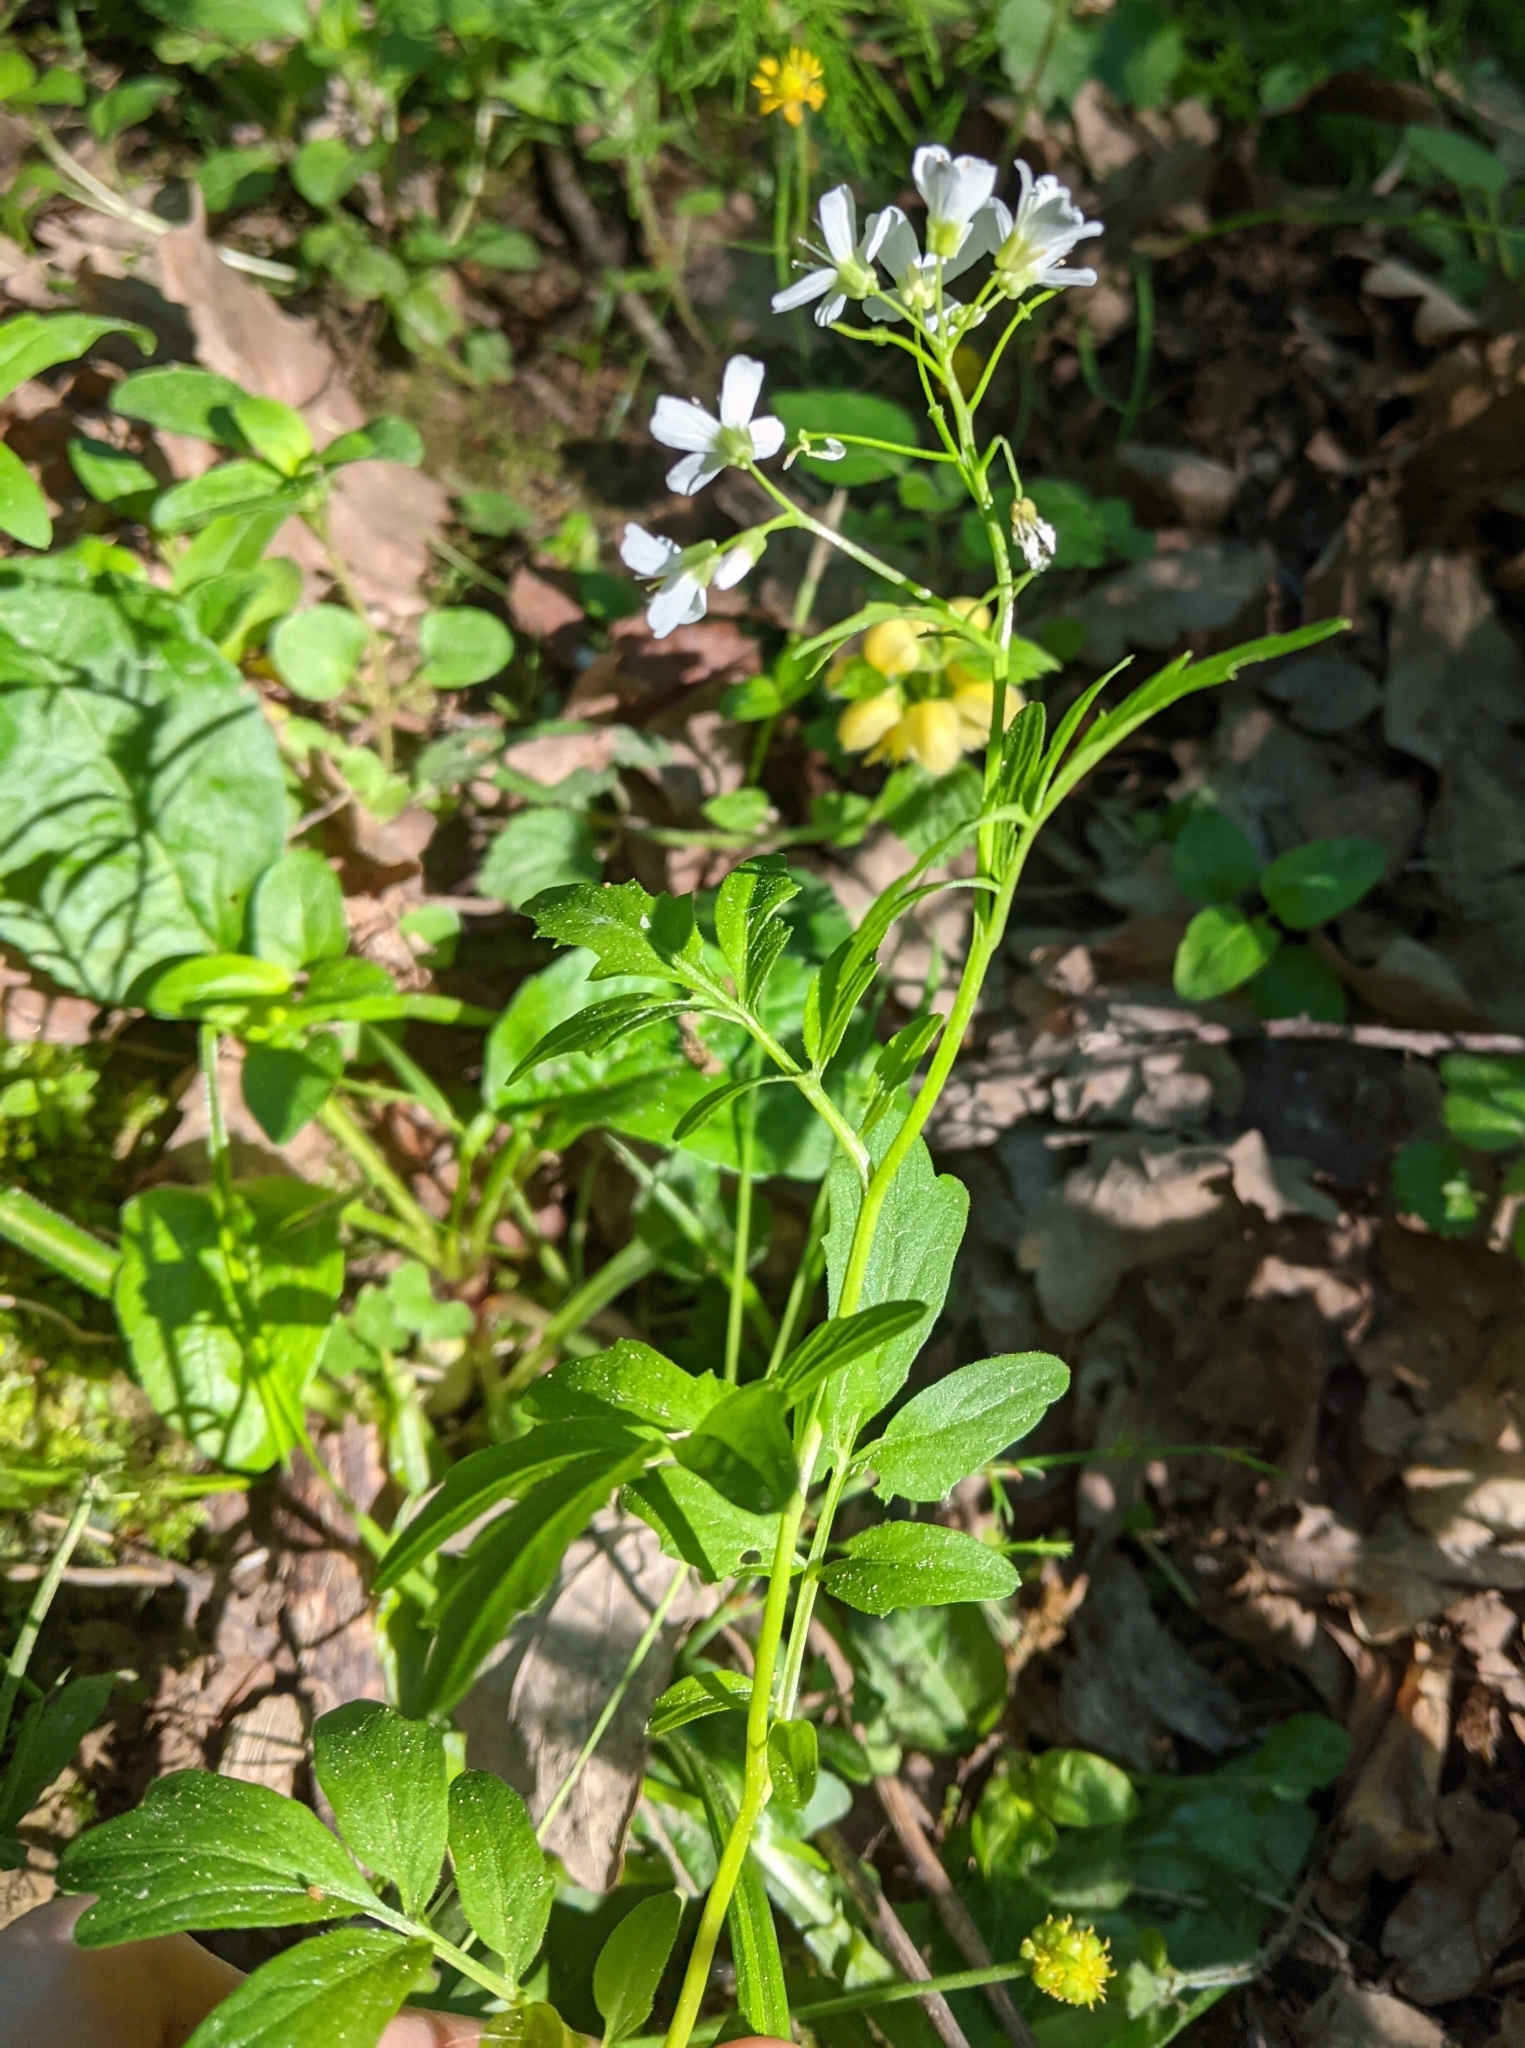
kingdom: Plantae
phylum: Tracheophyta
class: Magnoliopsida
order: Brassicales
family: Brassicaceae
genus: Cardamine
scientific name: Cardamine amara
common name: Large bitter-cress
